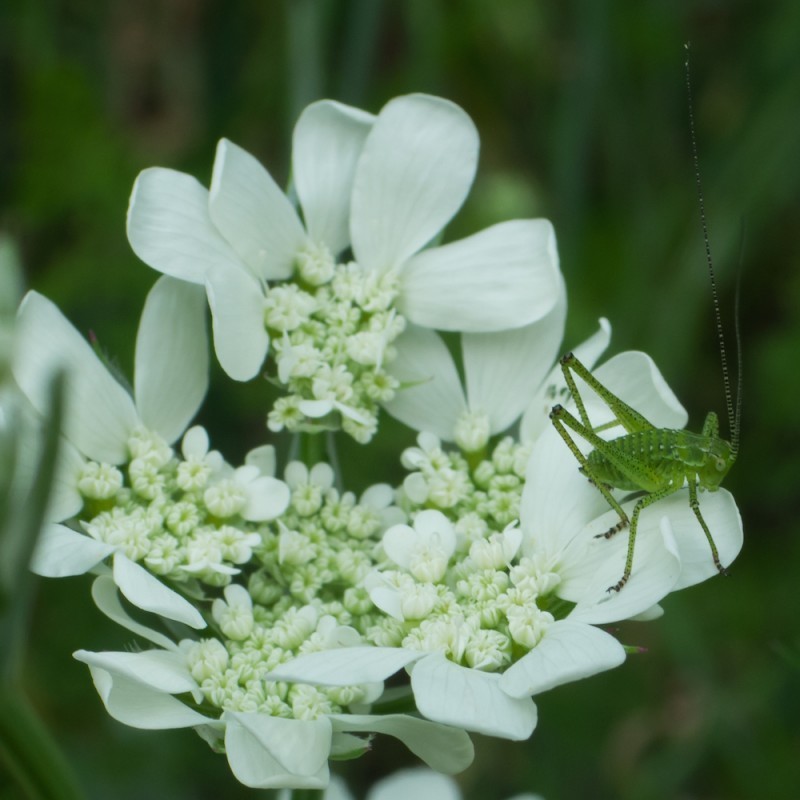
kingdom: Plantae
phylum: Tracheophyta
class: Magnoliopsida
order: Apiales
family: Apiaceae
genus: Orlaya
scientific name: Orlaya grandiflora
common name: White lace flower
